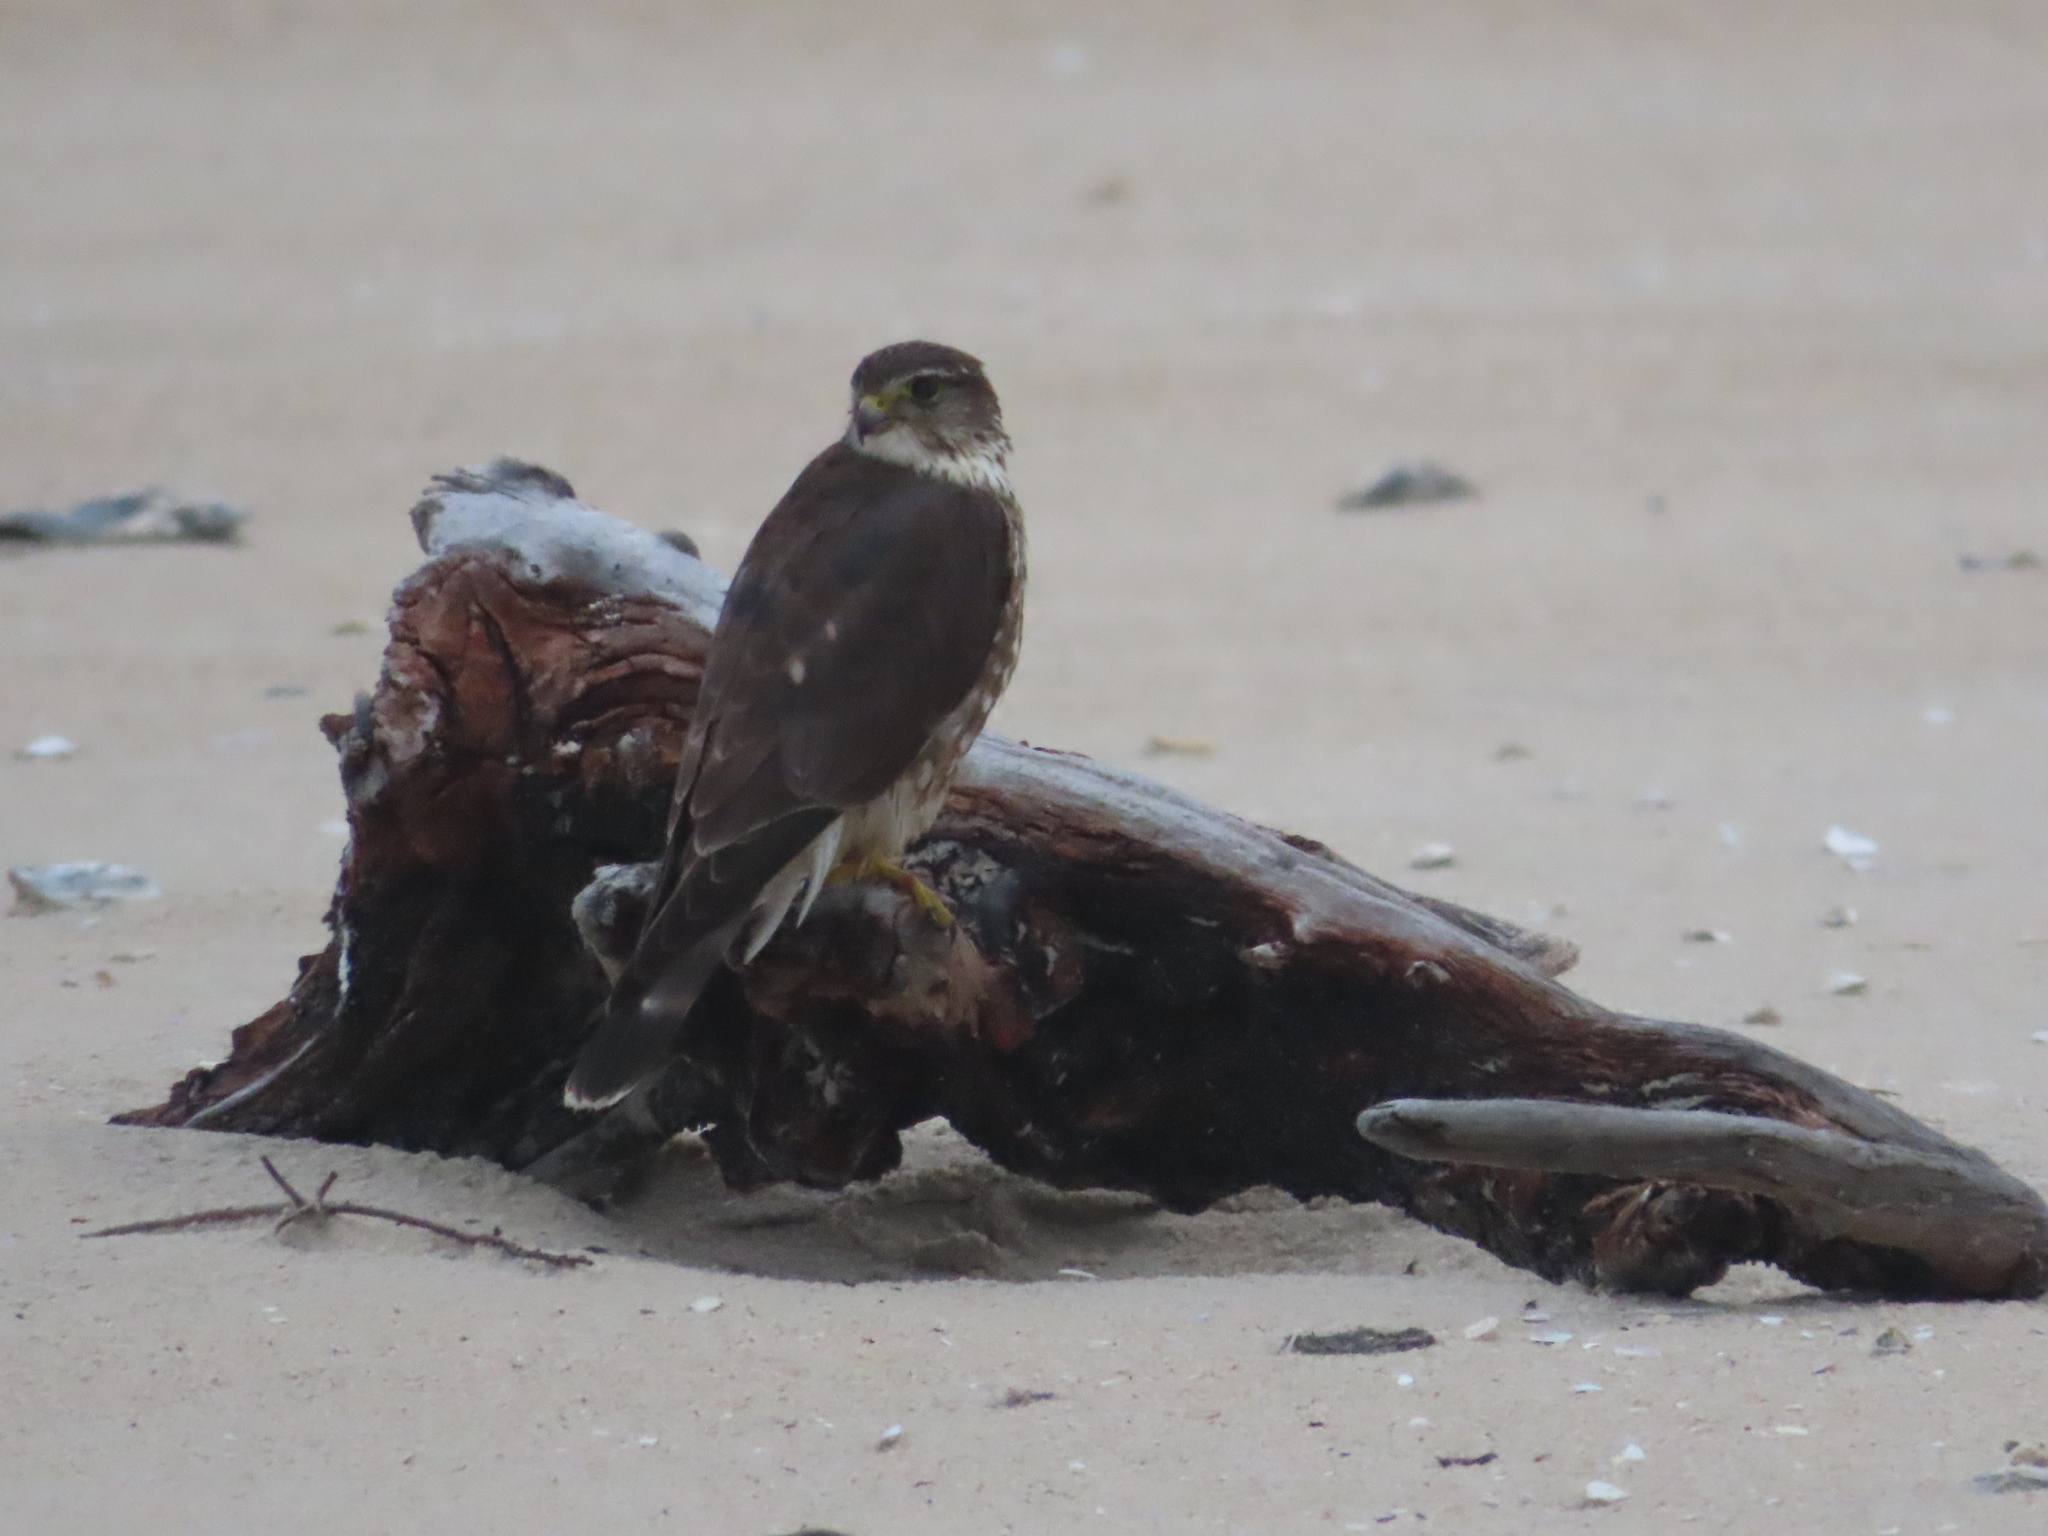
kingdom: Animalia
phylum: Chordata
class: Aves
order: Falconiformes
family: Falconidae
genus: Falco
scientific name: Falco columbarius
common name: Merlin
